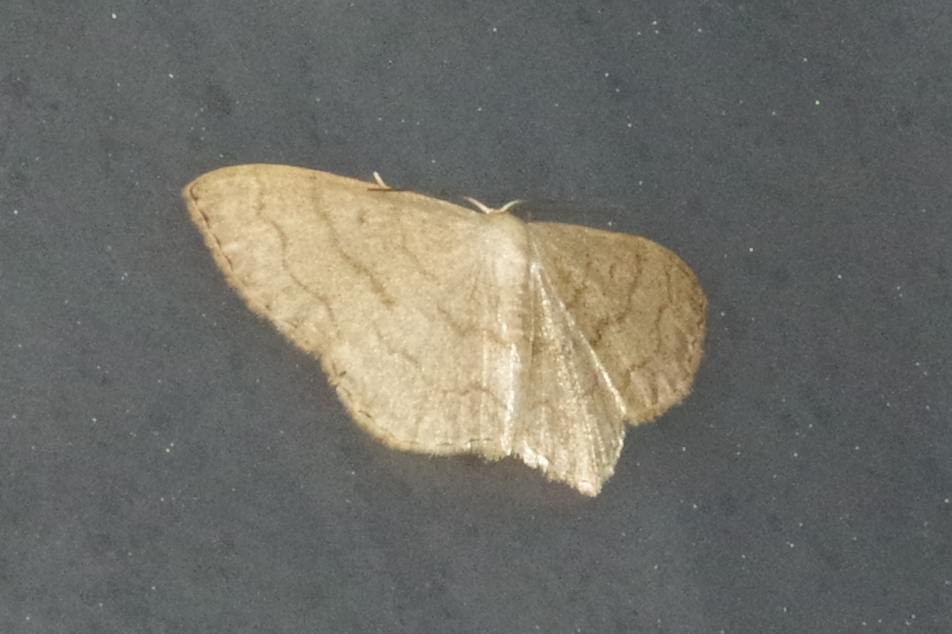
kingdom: Animalia
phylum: Arthropoda
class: Insecta
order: Lepidoptera
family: Geometridae
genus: Scopula
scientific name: Scopula plumbearia
